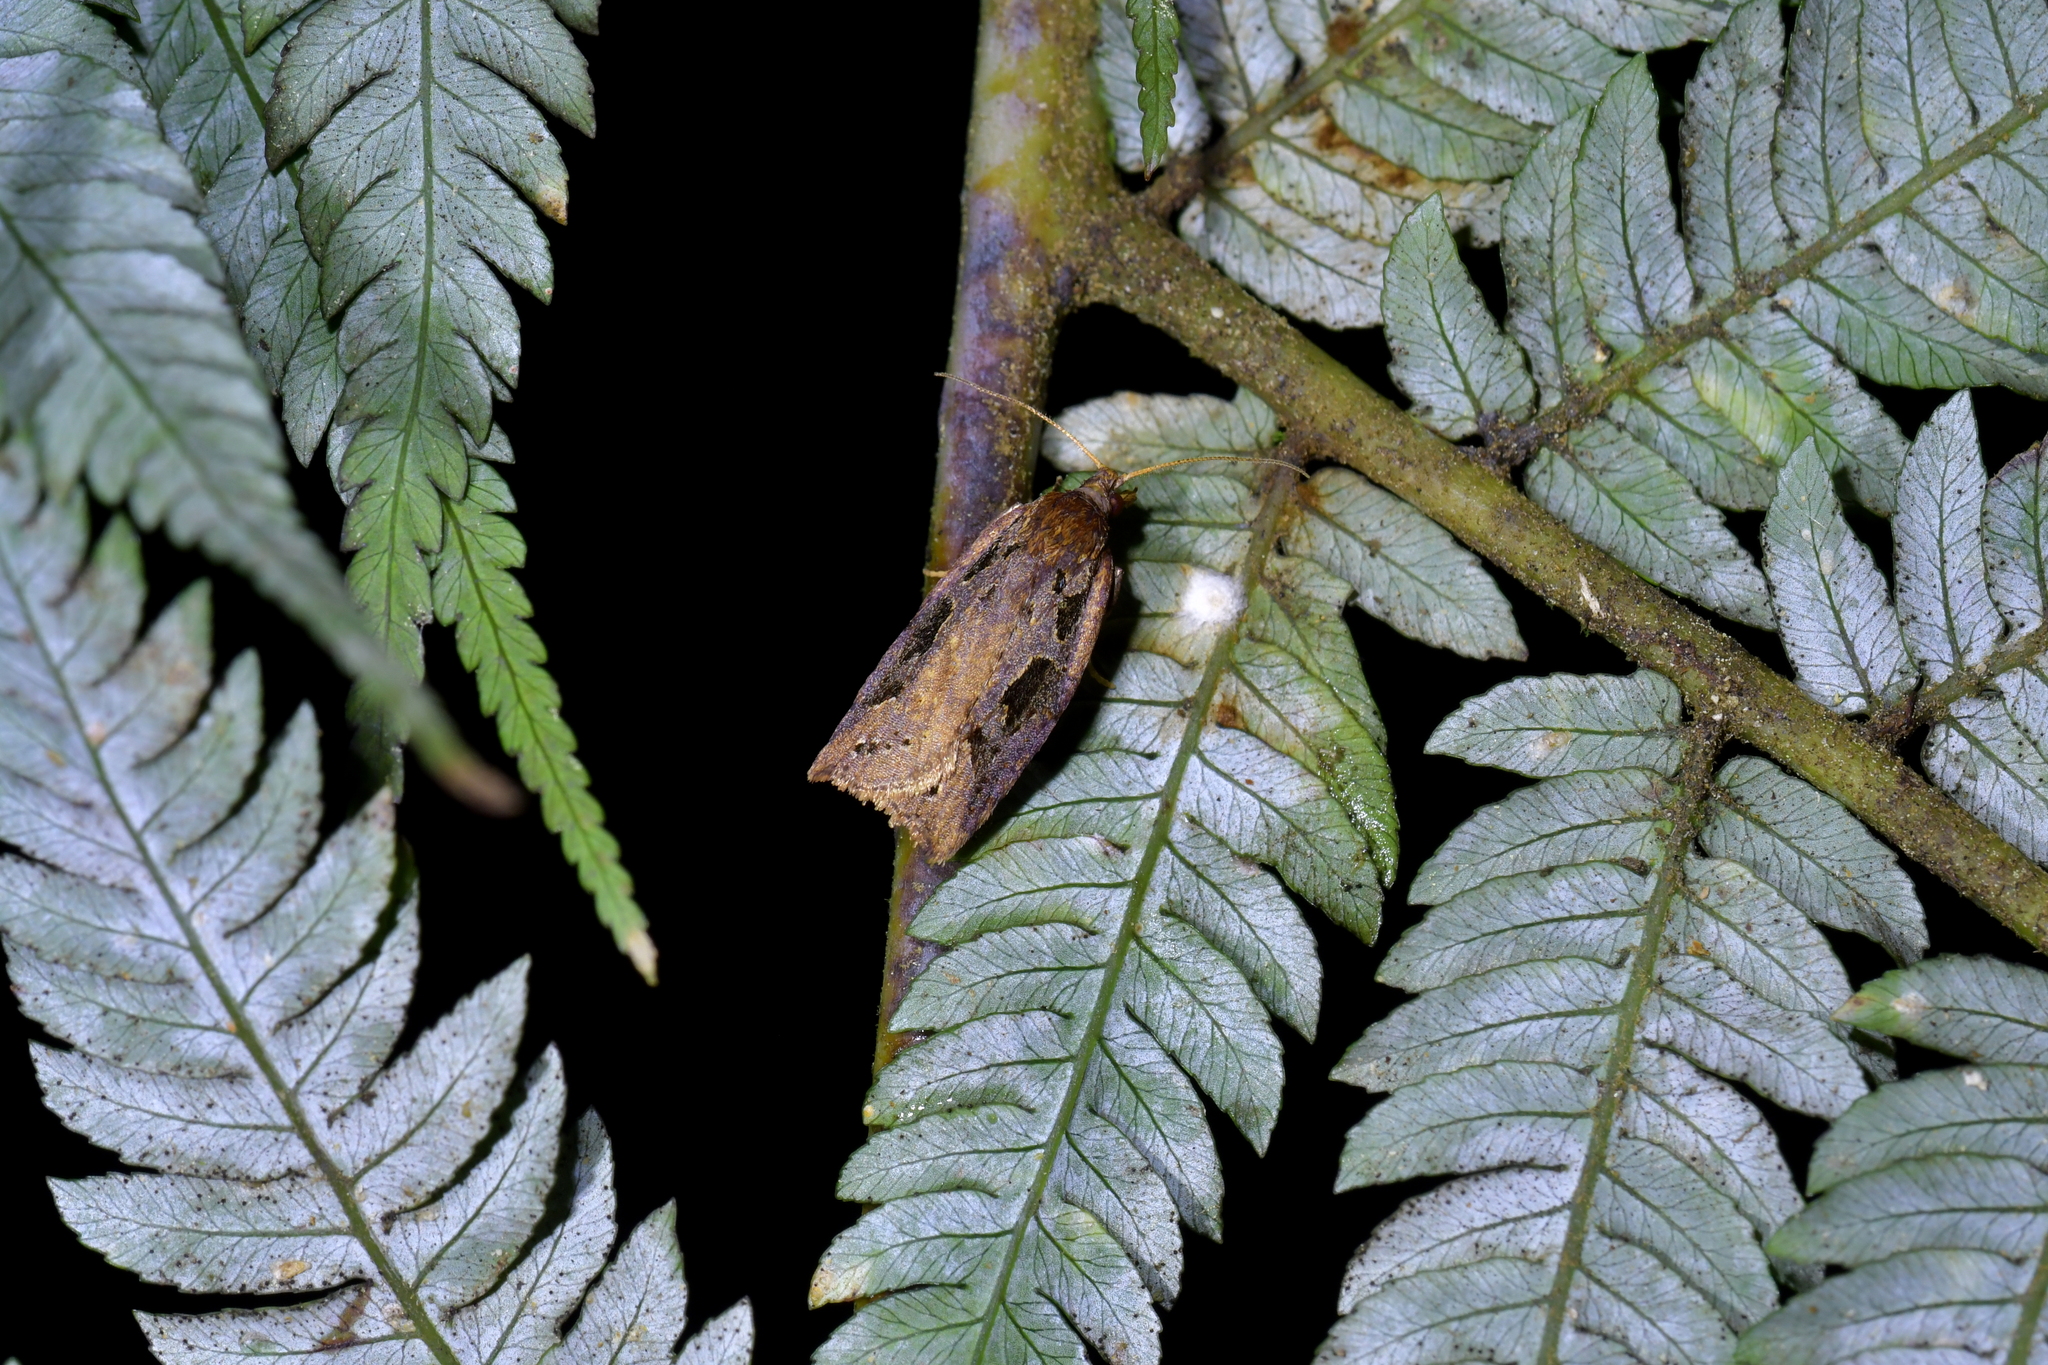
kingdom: Animalia
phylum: Arthropoda
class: Insecta
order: Lepidoptera
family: Tortricidae
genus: Ctenopseustis
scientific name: Ctenopseustis fraterna
